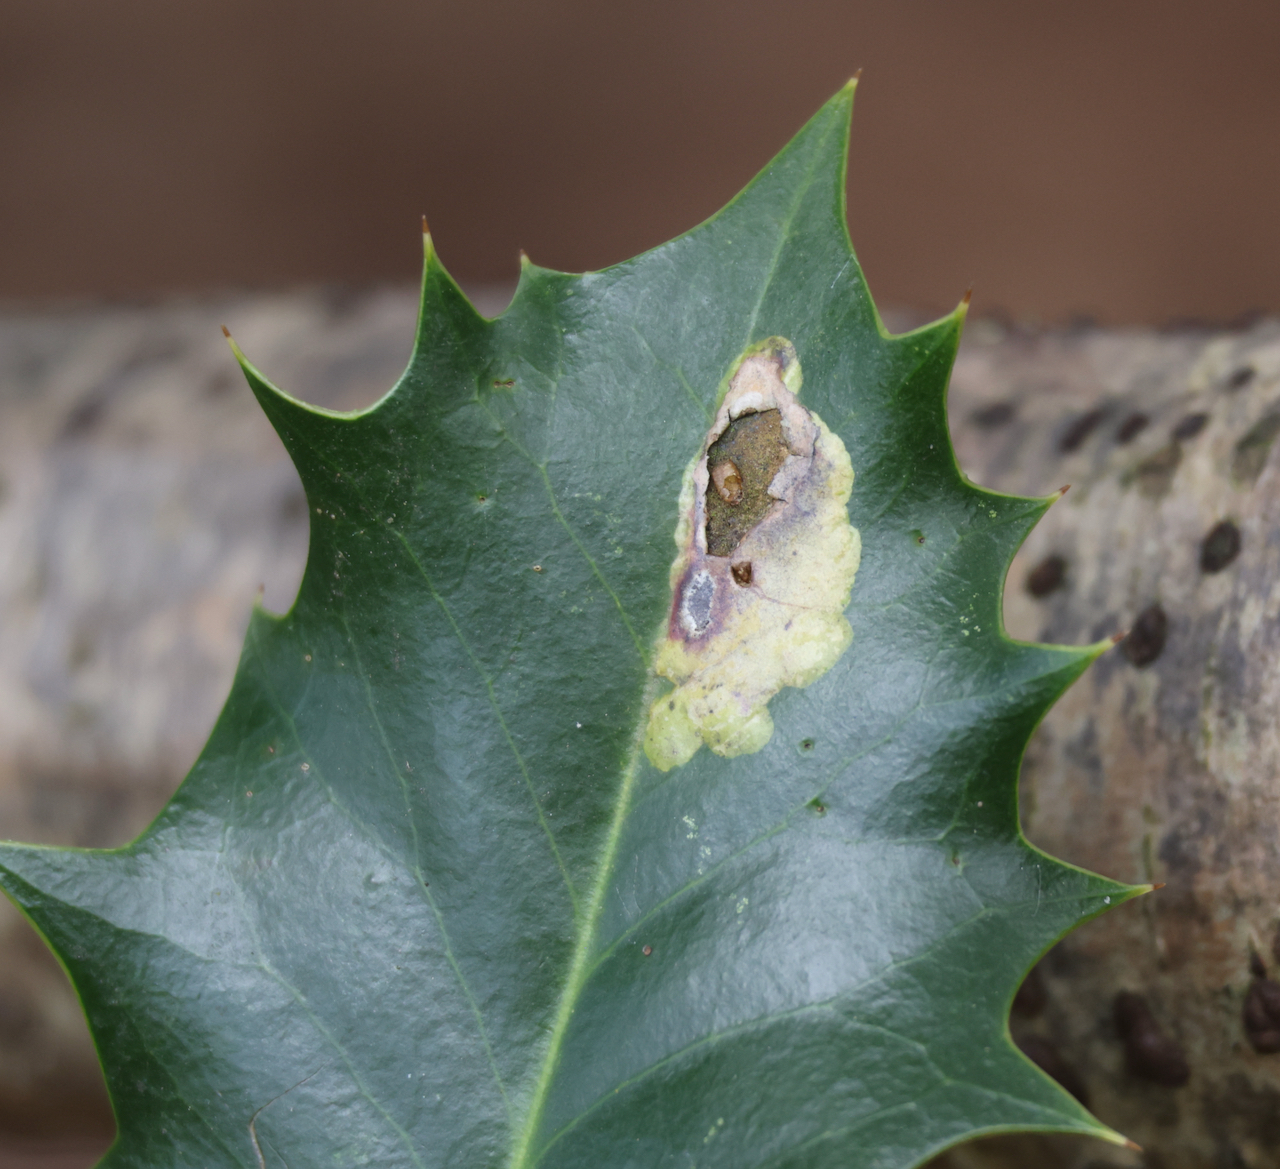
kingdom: Animalia
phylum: Arthropoda
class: Insecta
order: Diptera
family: Agromyzidae
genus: Phytomyza
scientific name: Phytomyza ilicis
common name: Holly leafminer
